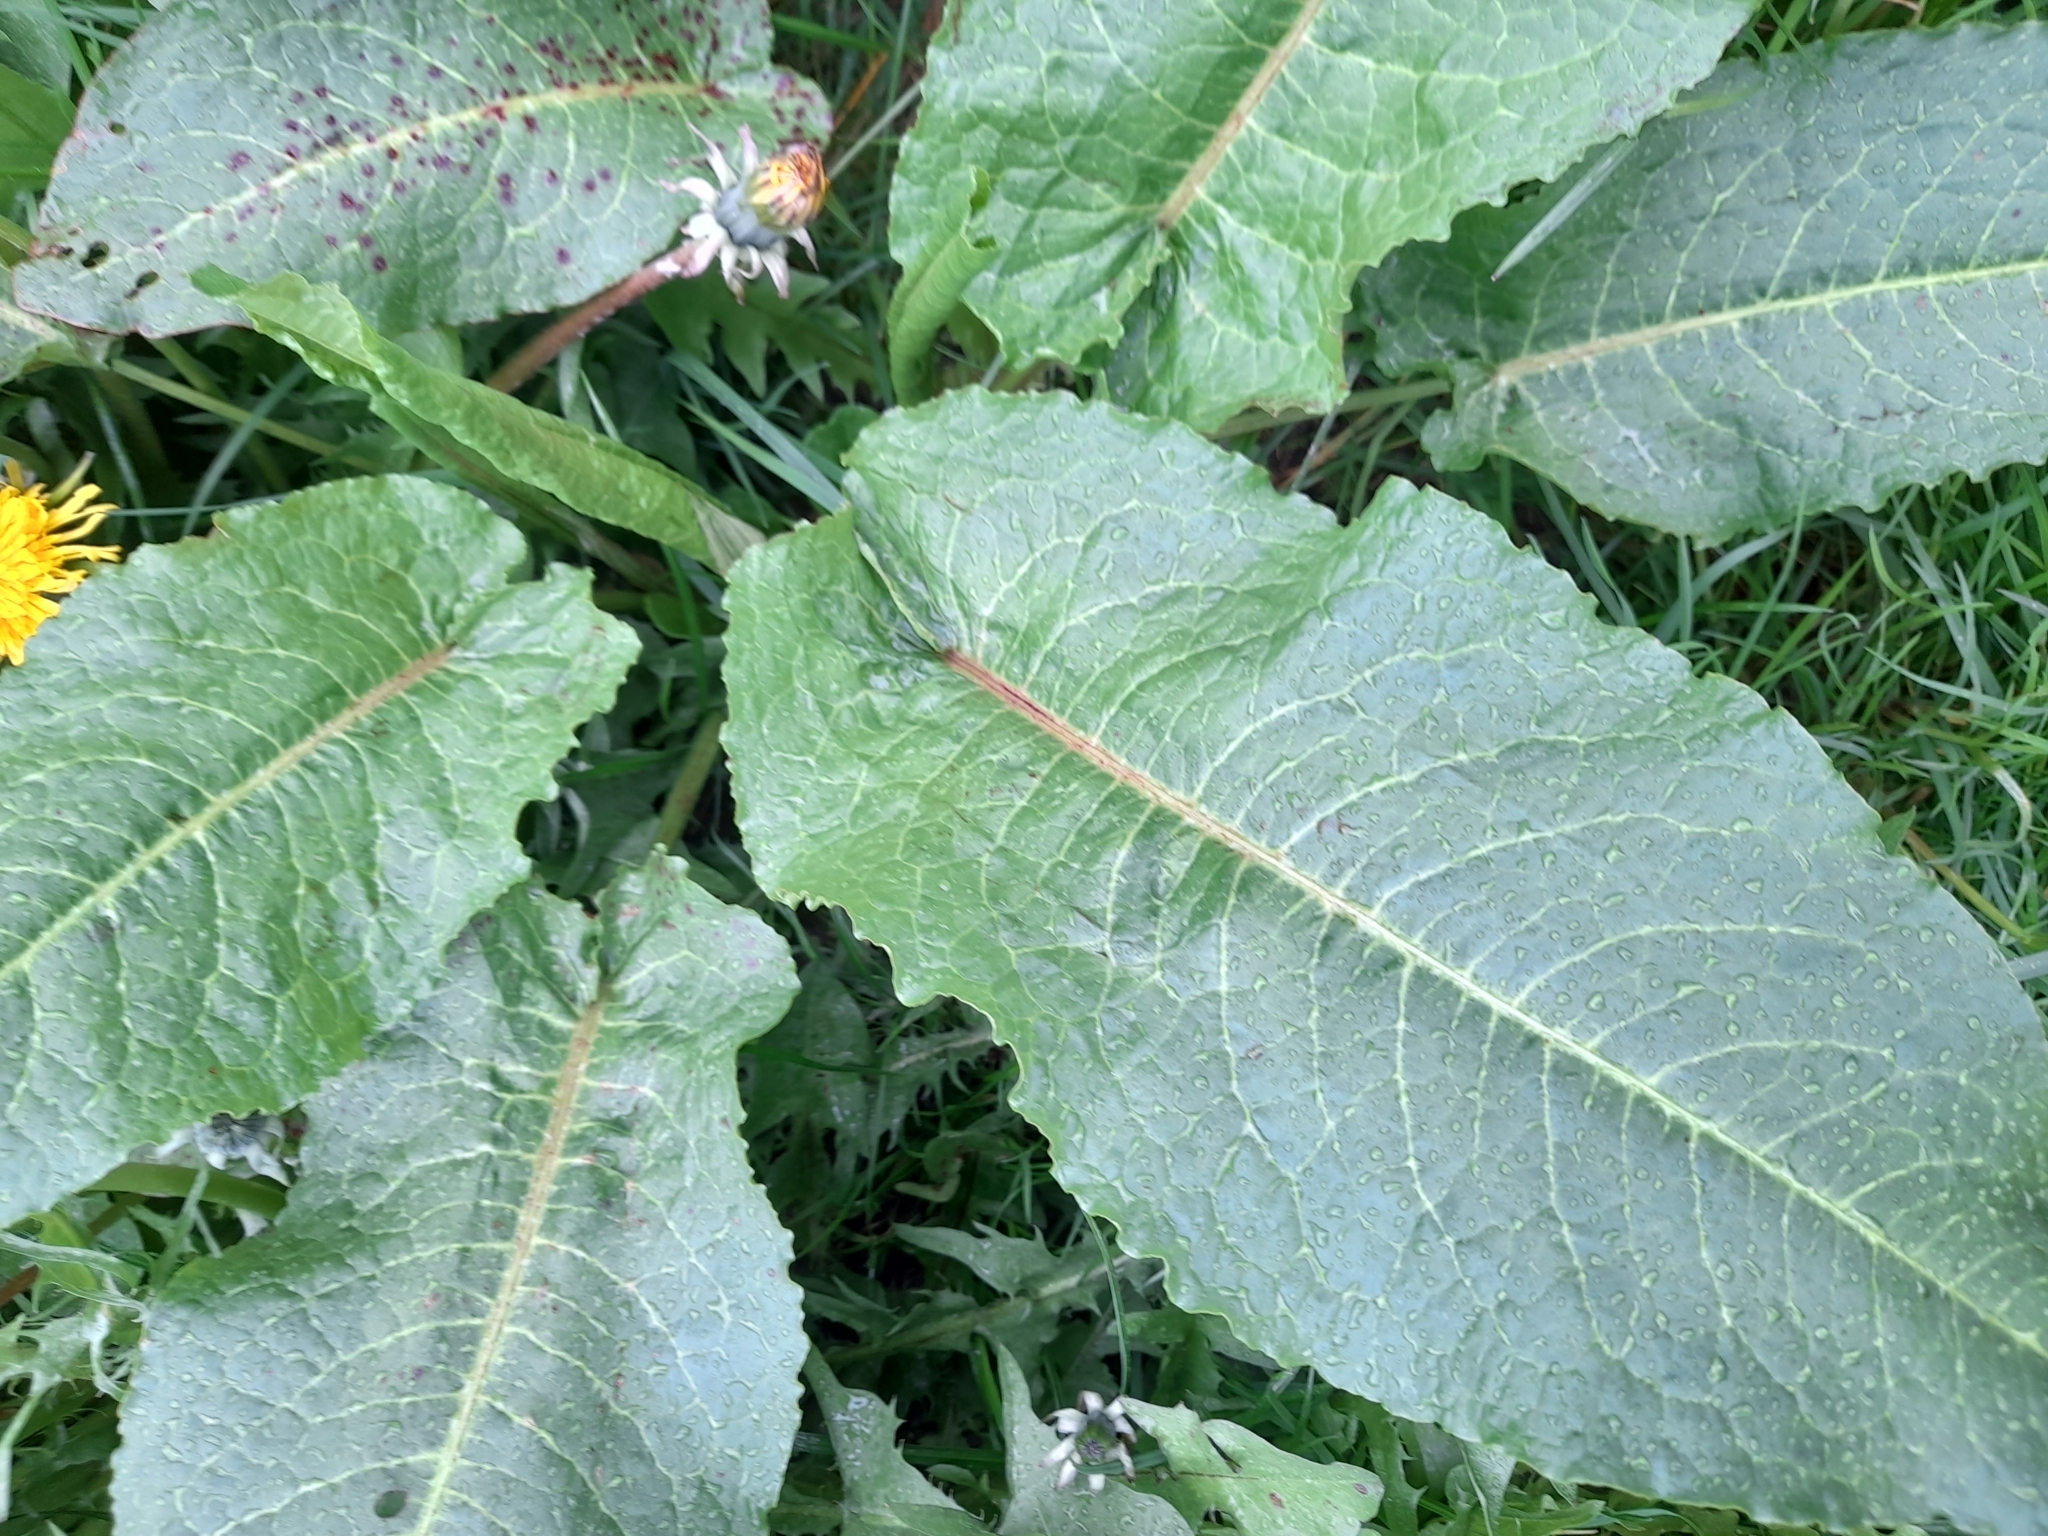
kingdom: Plantae
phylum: Tracheophyta
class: Magnoliopsida
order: Caryophyllales
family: Polygonaceae
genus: Rumex
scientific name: Rumex obtusifolius
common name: Bitter dock
